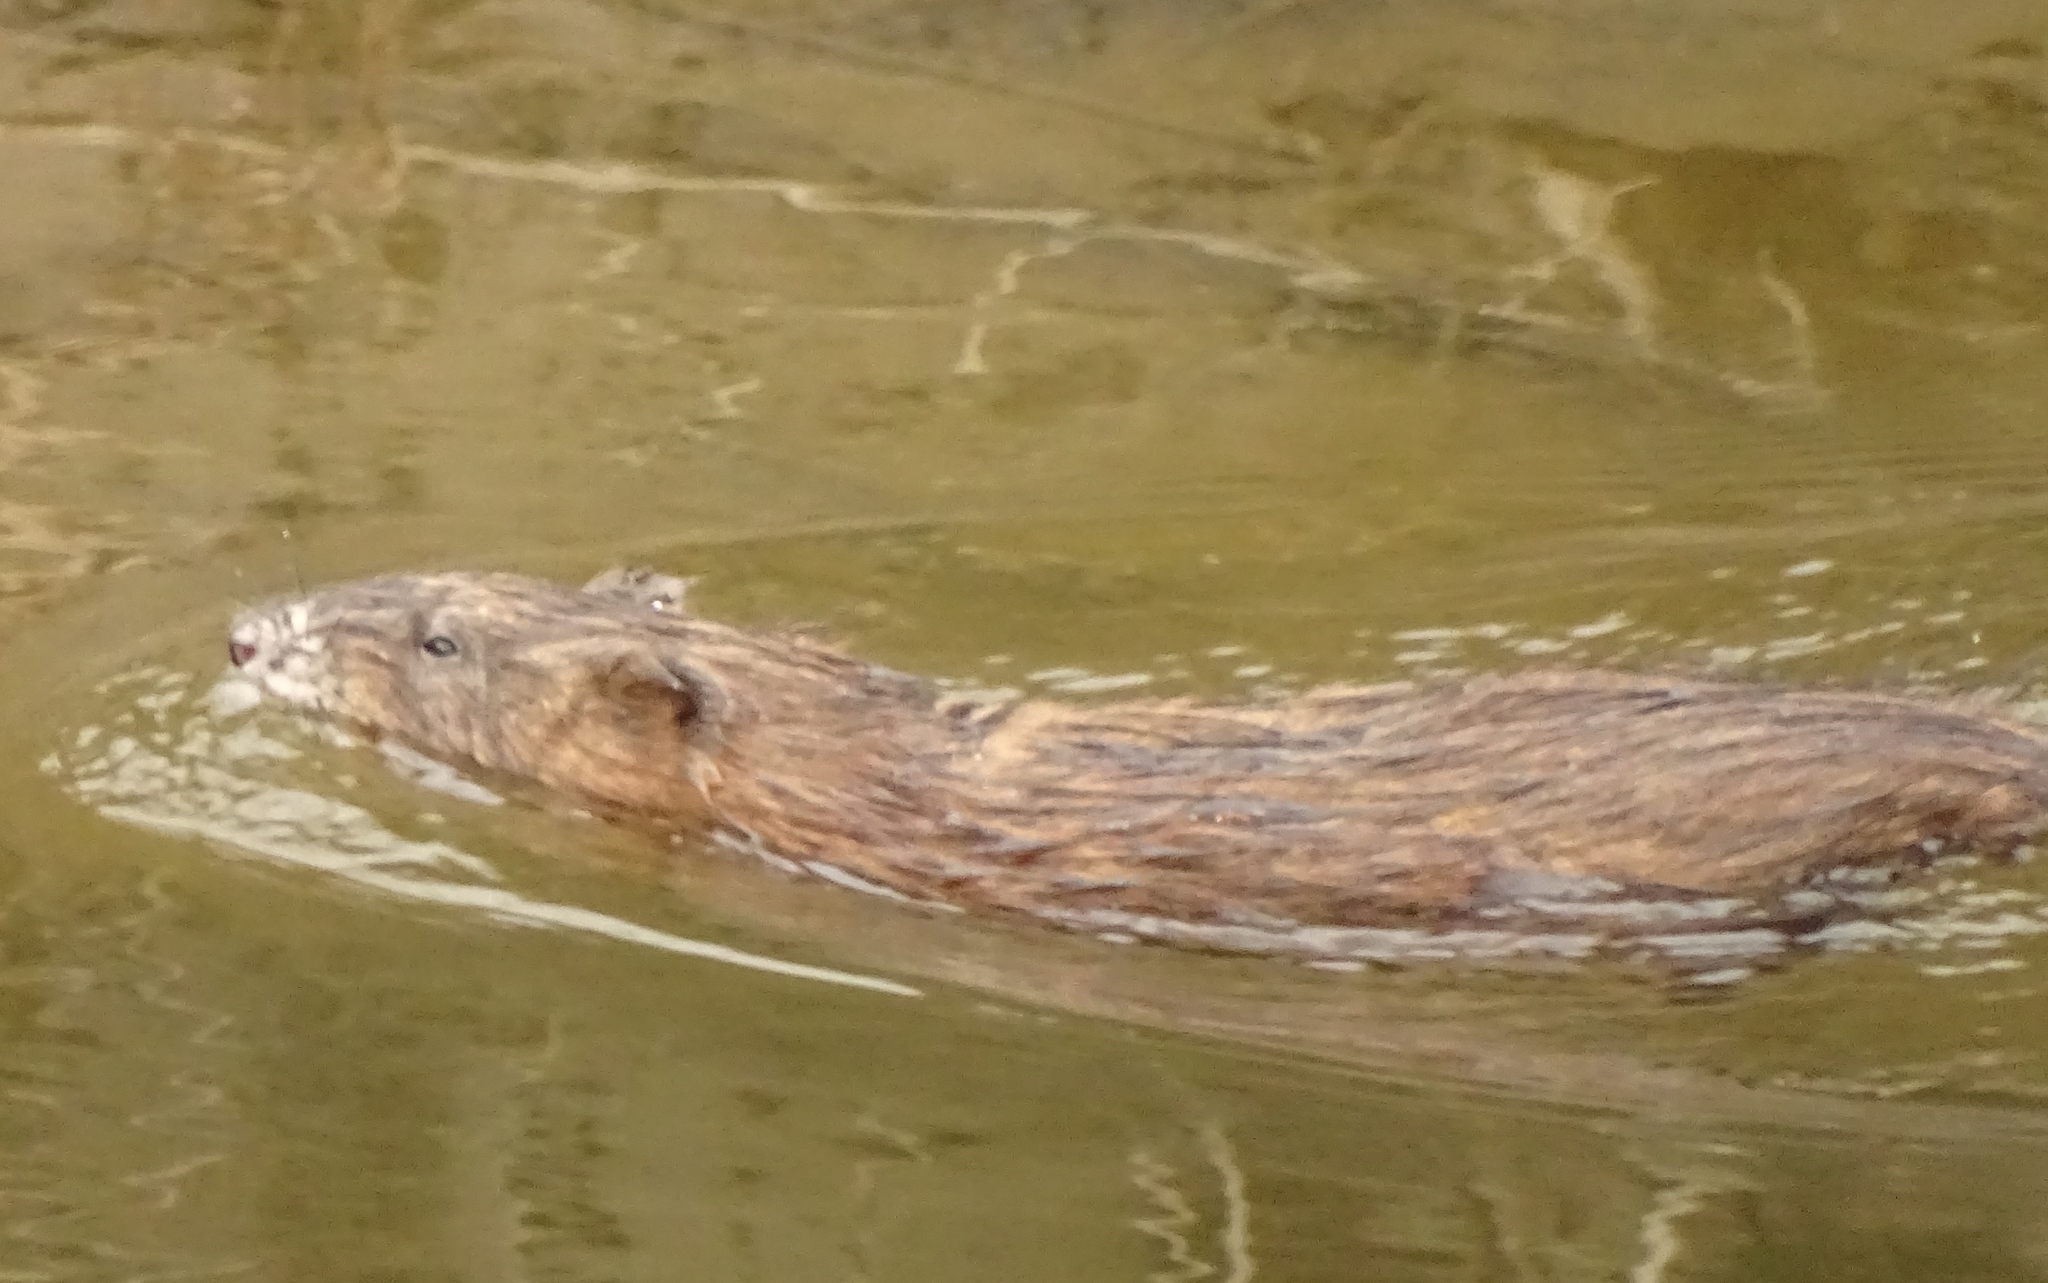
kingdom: Animalia
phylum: Chordata
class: Mammalia
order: Rodentia
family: Cricetidae
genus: Ondatra
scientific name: Ondatra zibethicus
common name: Muskrat
